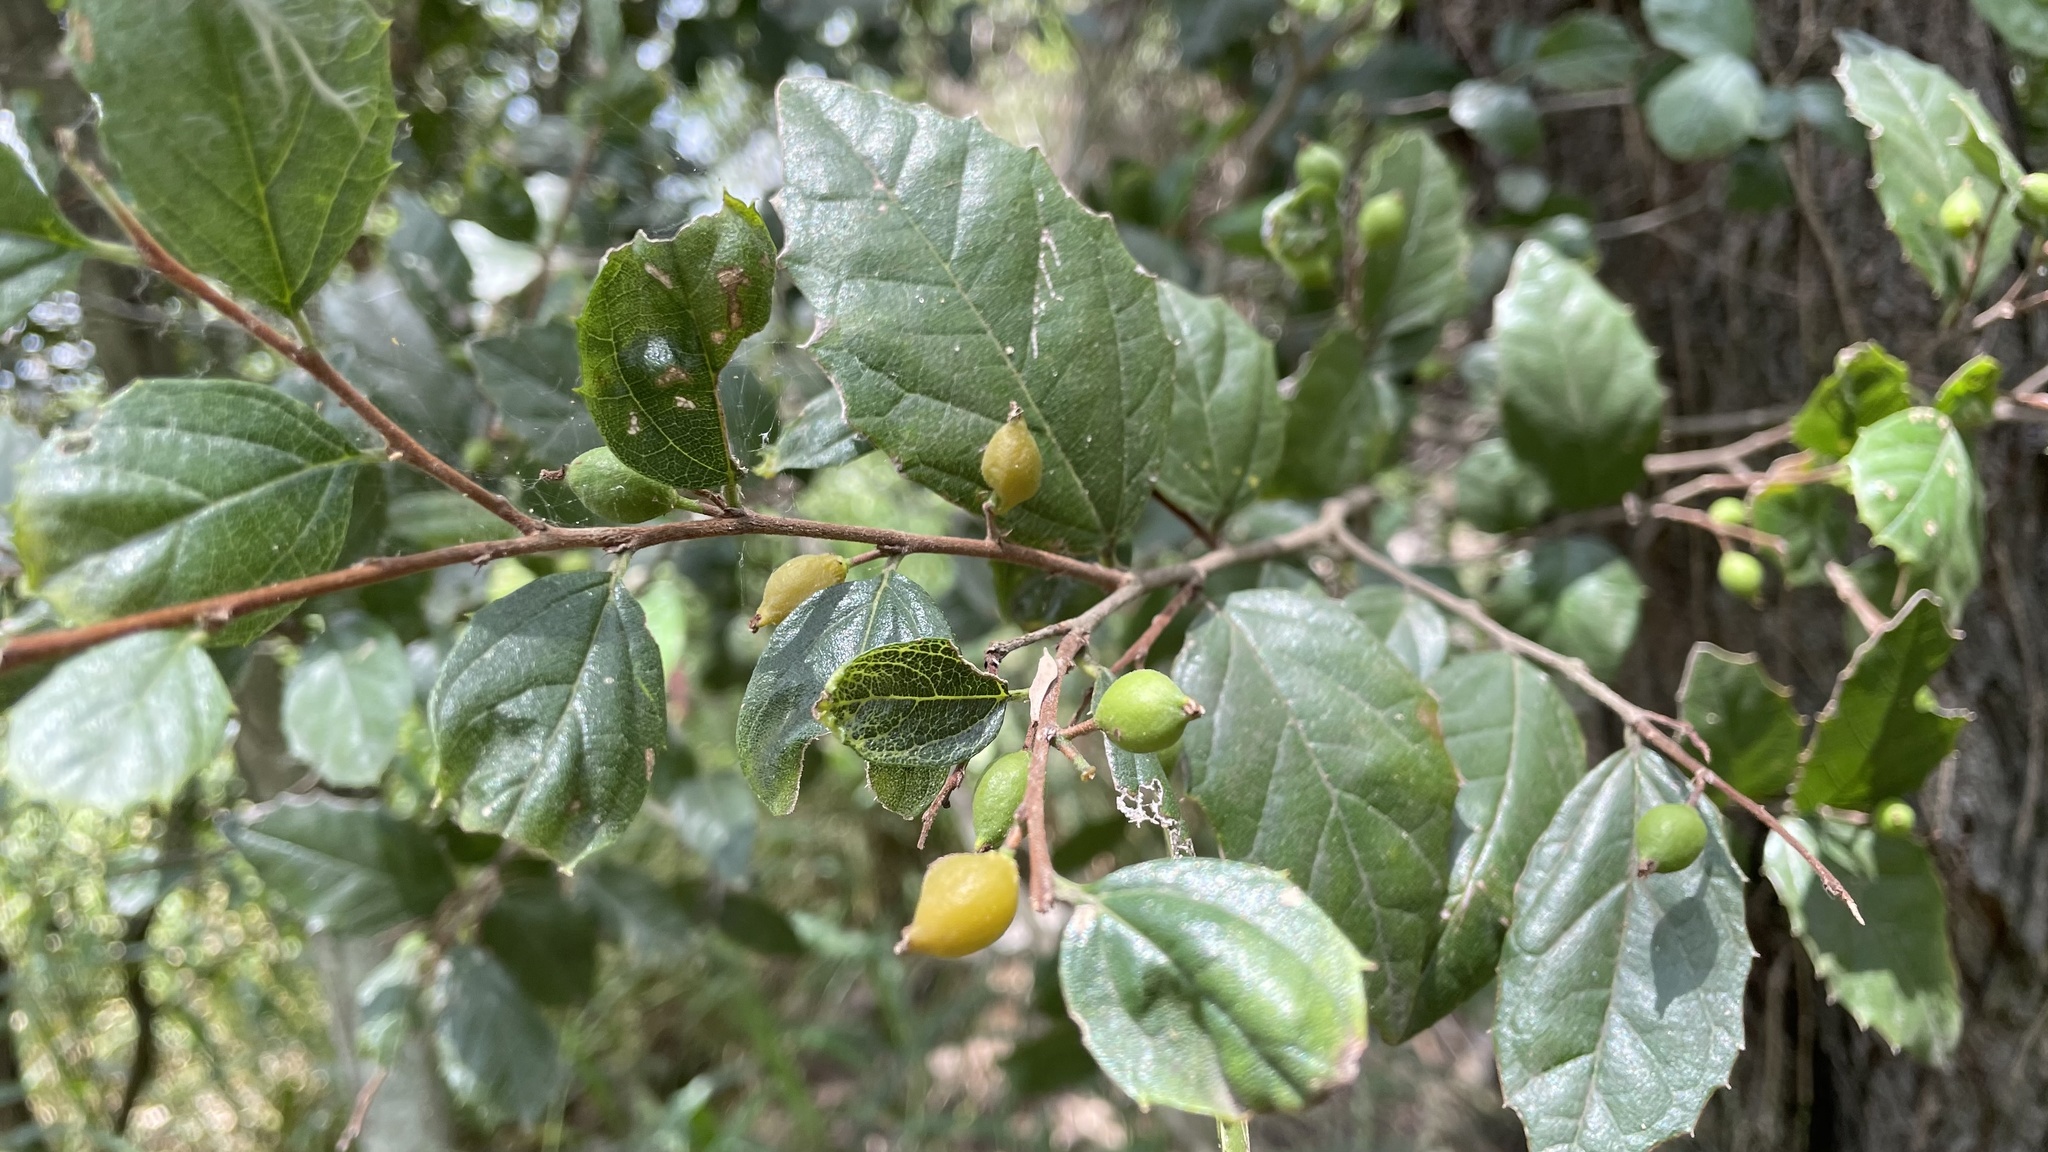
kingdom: Plantae
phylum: Tracheophyta
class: Magnoliopsida
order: Rosales
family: Cannabaceae
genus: Aphananthe
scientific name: Aphananthe philippinensis
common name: Wild holly
